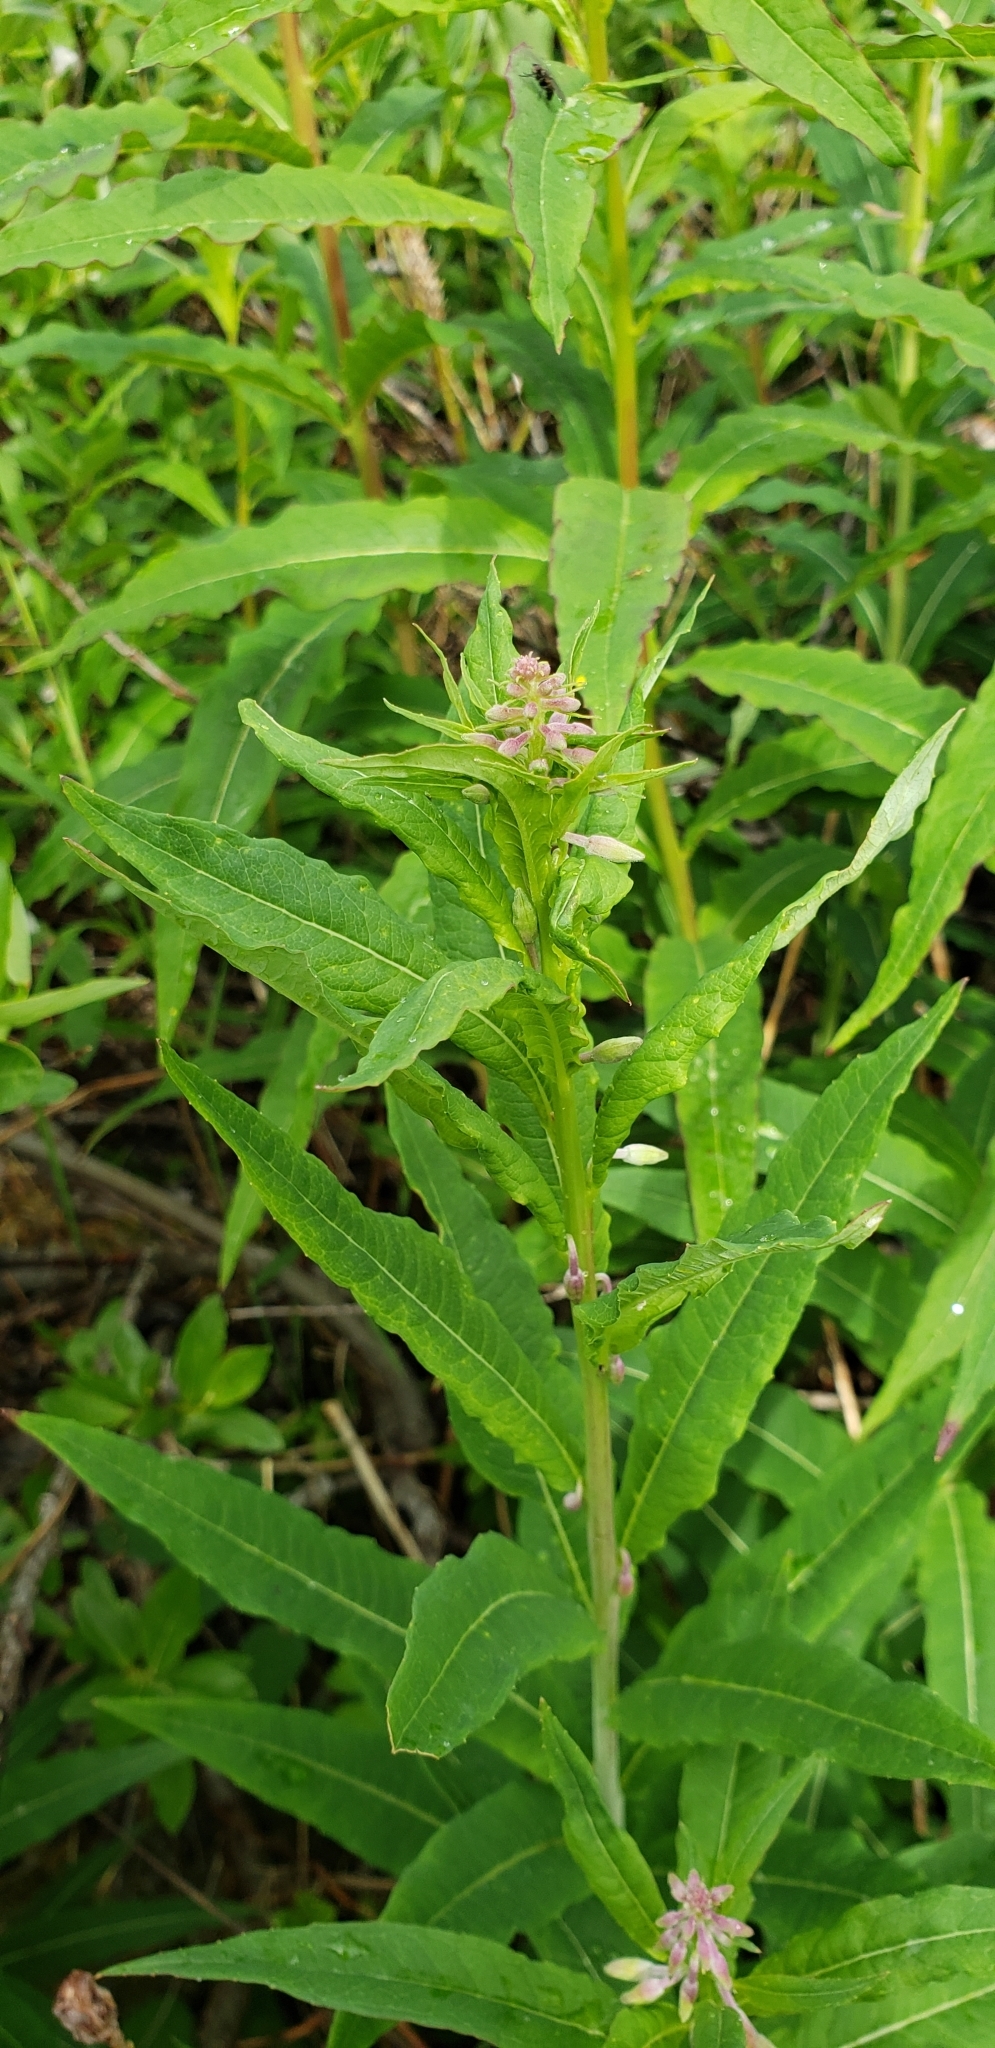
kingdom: Plantae
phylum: Tracheophyta
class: Magnoliopsida
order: Myrtales
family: Onagraceae
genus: Chamaenerion
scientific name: Chamaenerion angustifolium
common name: Fireweed
